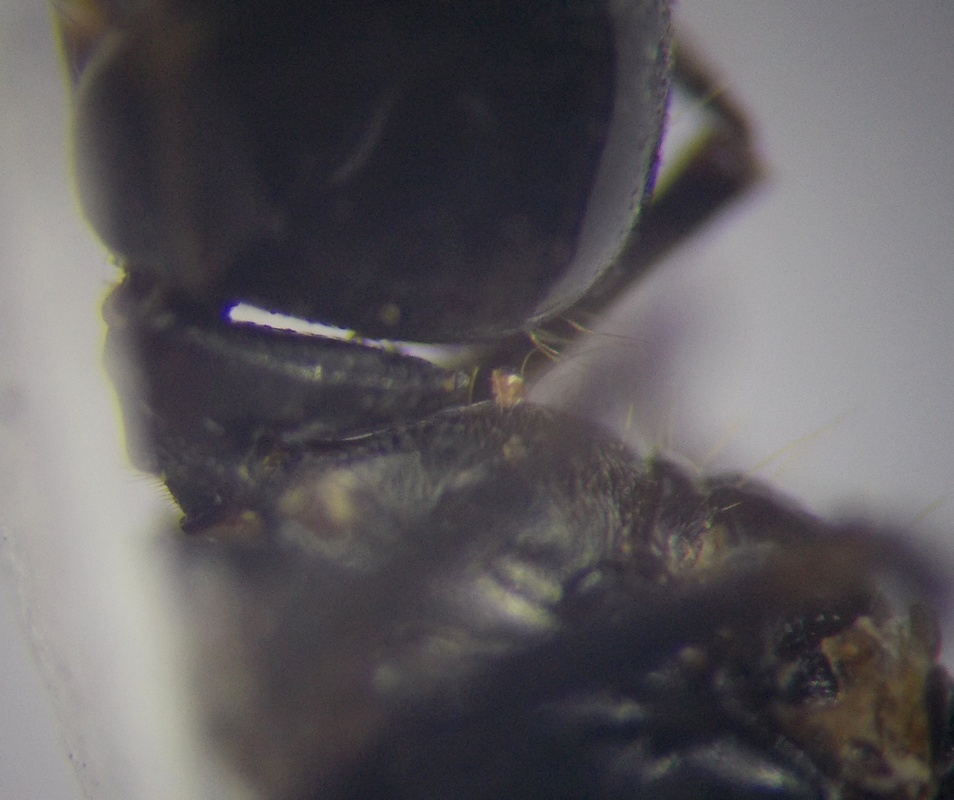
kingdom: Animalia
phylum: Arthropoda
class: Insecta
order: Hymenoptera
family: Formicidae
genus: Cataglyphis
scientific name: Cataglyphis aenescens
